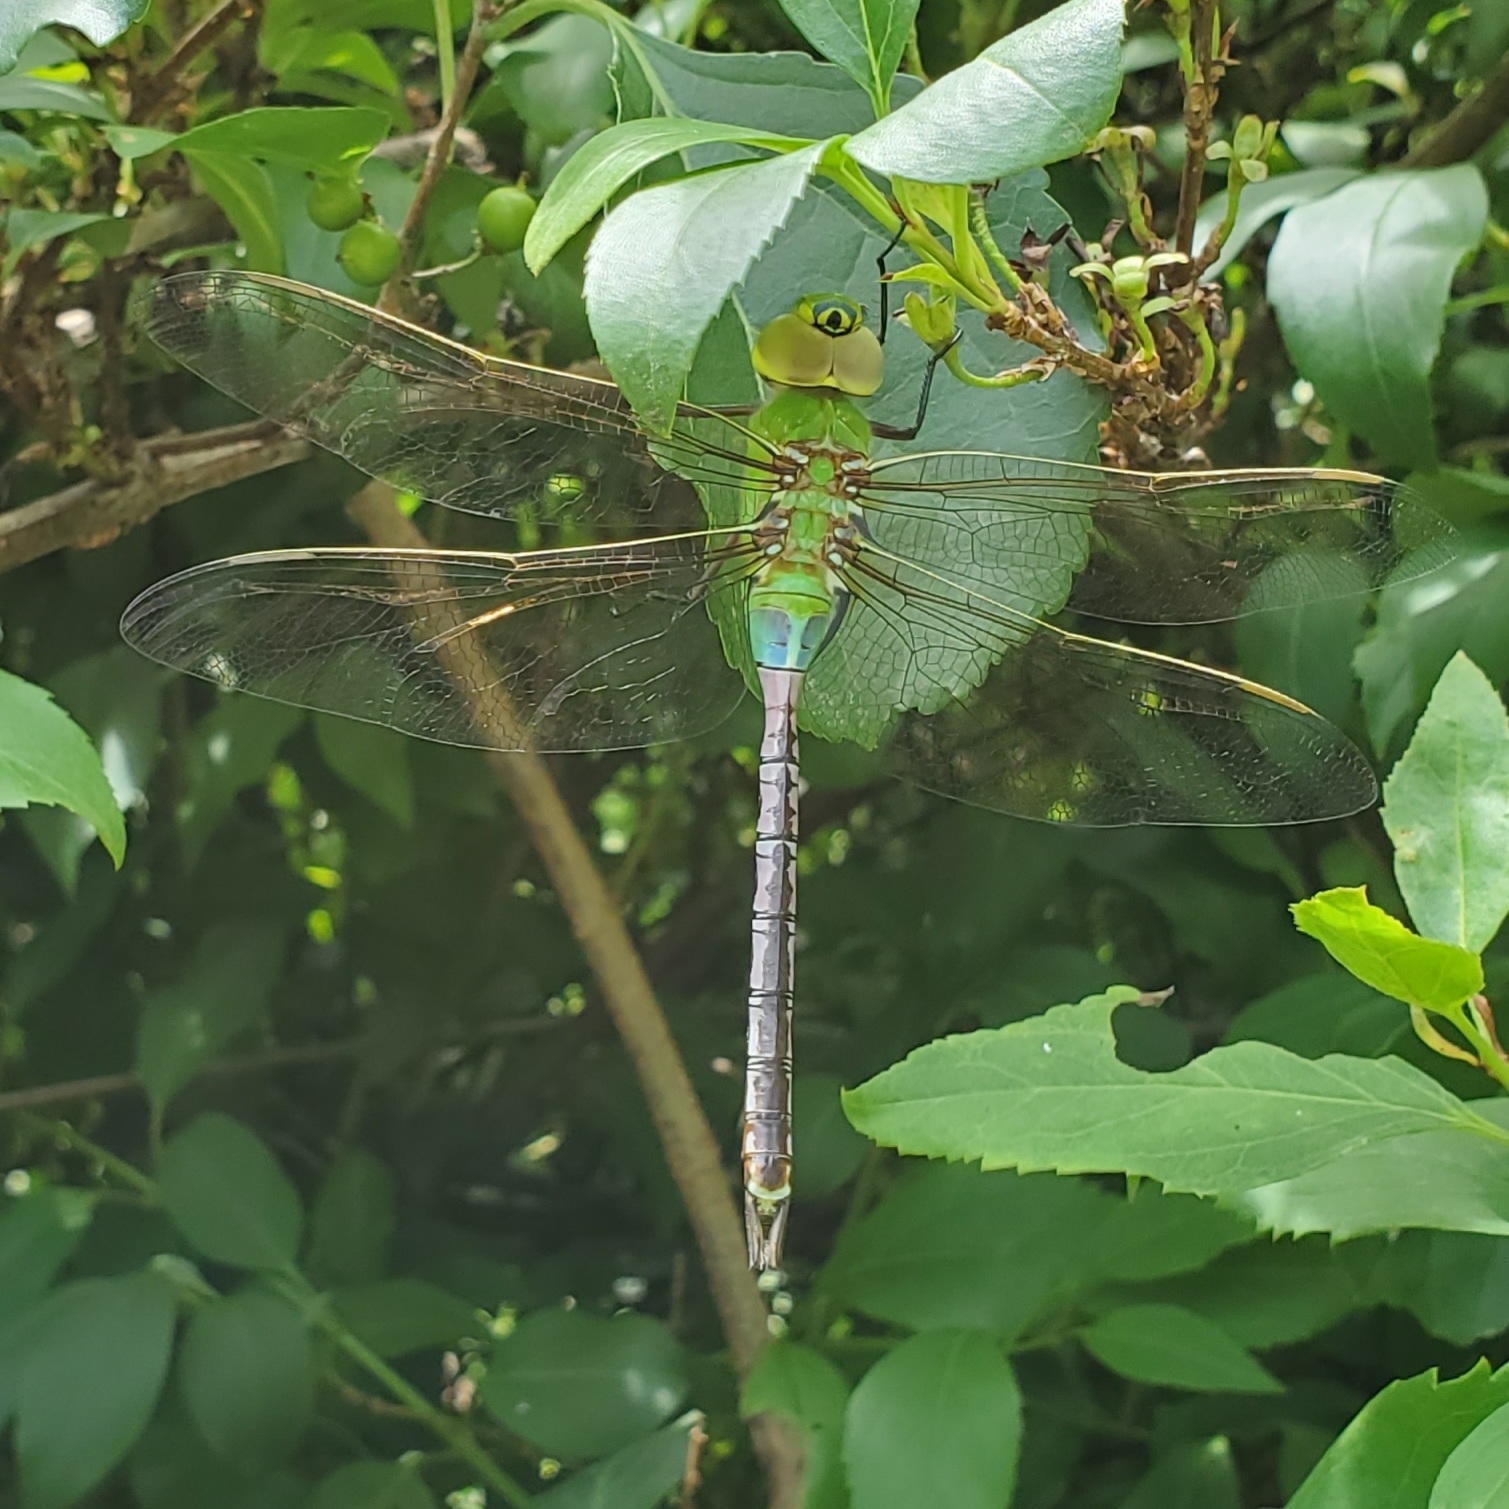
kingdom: Animalia
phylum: Arthropoda
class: Insecta
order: Odonata
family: Aeshnidae
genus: Anax
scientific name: Anax junius
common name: Common green darner
